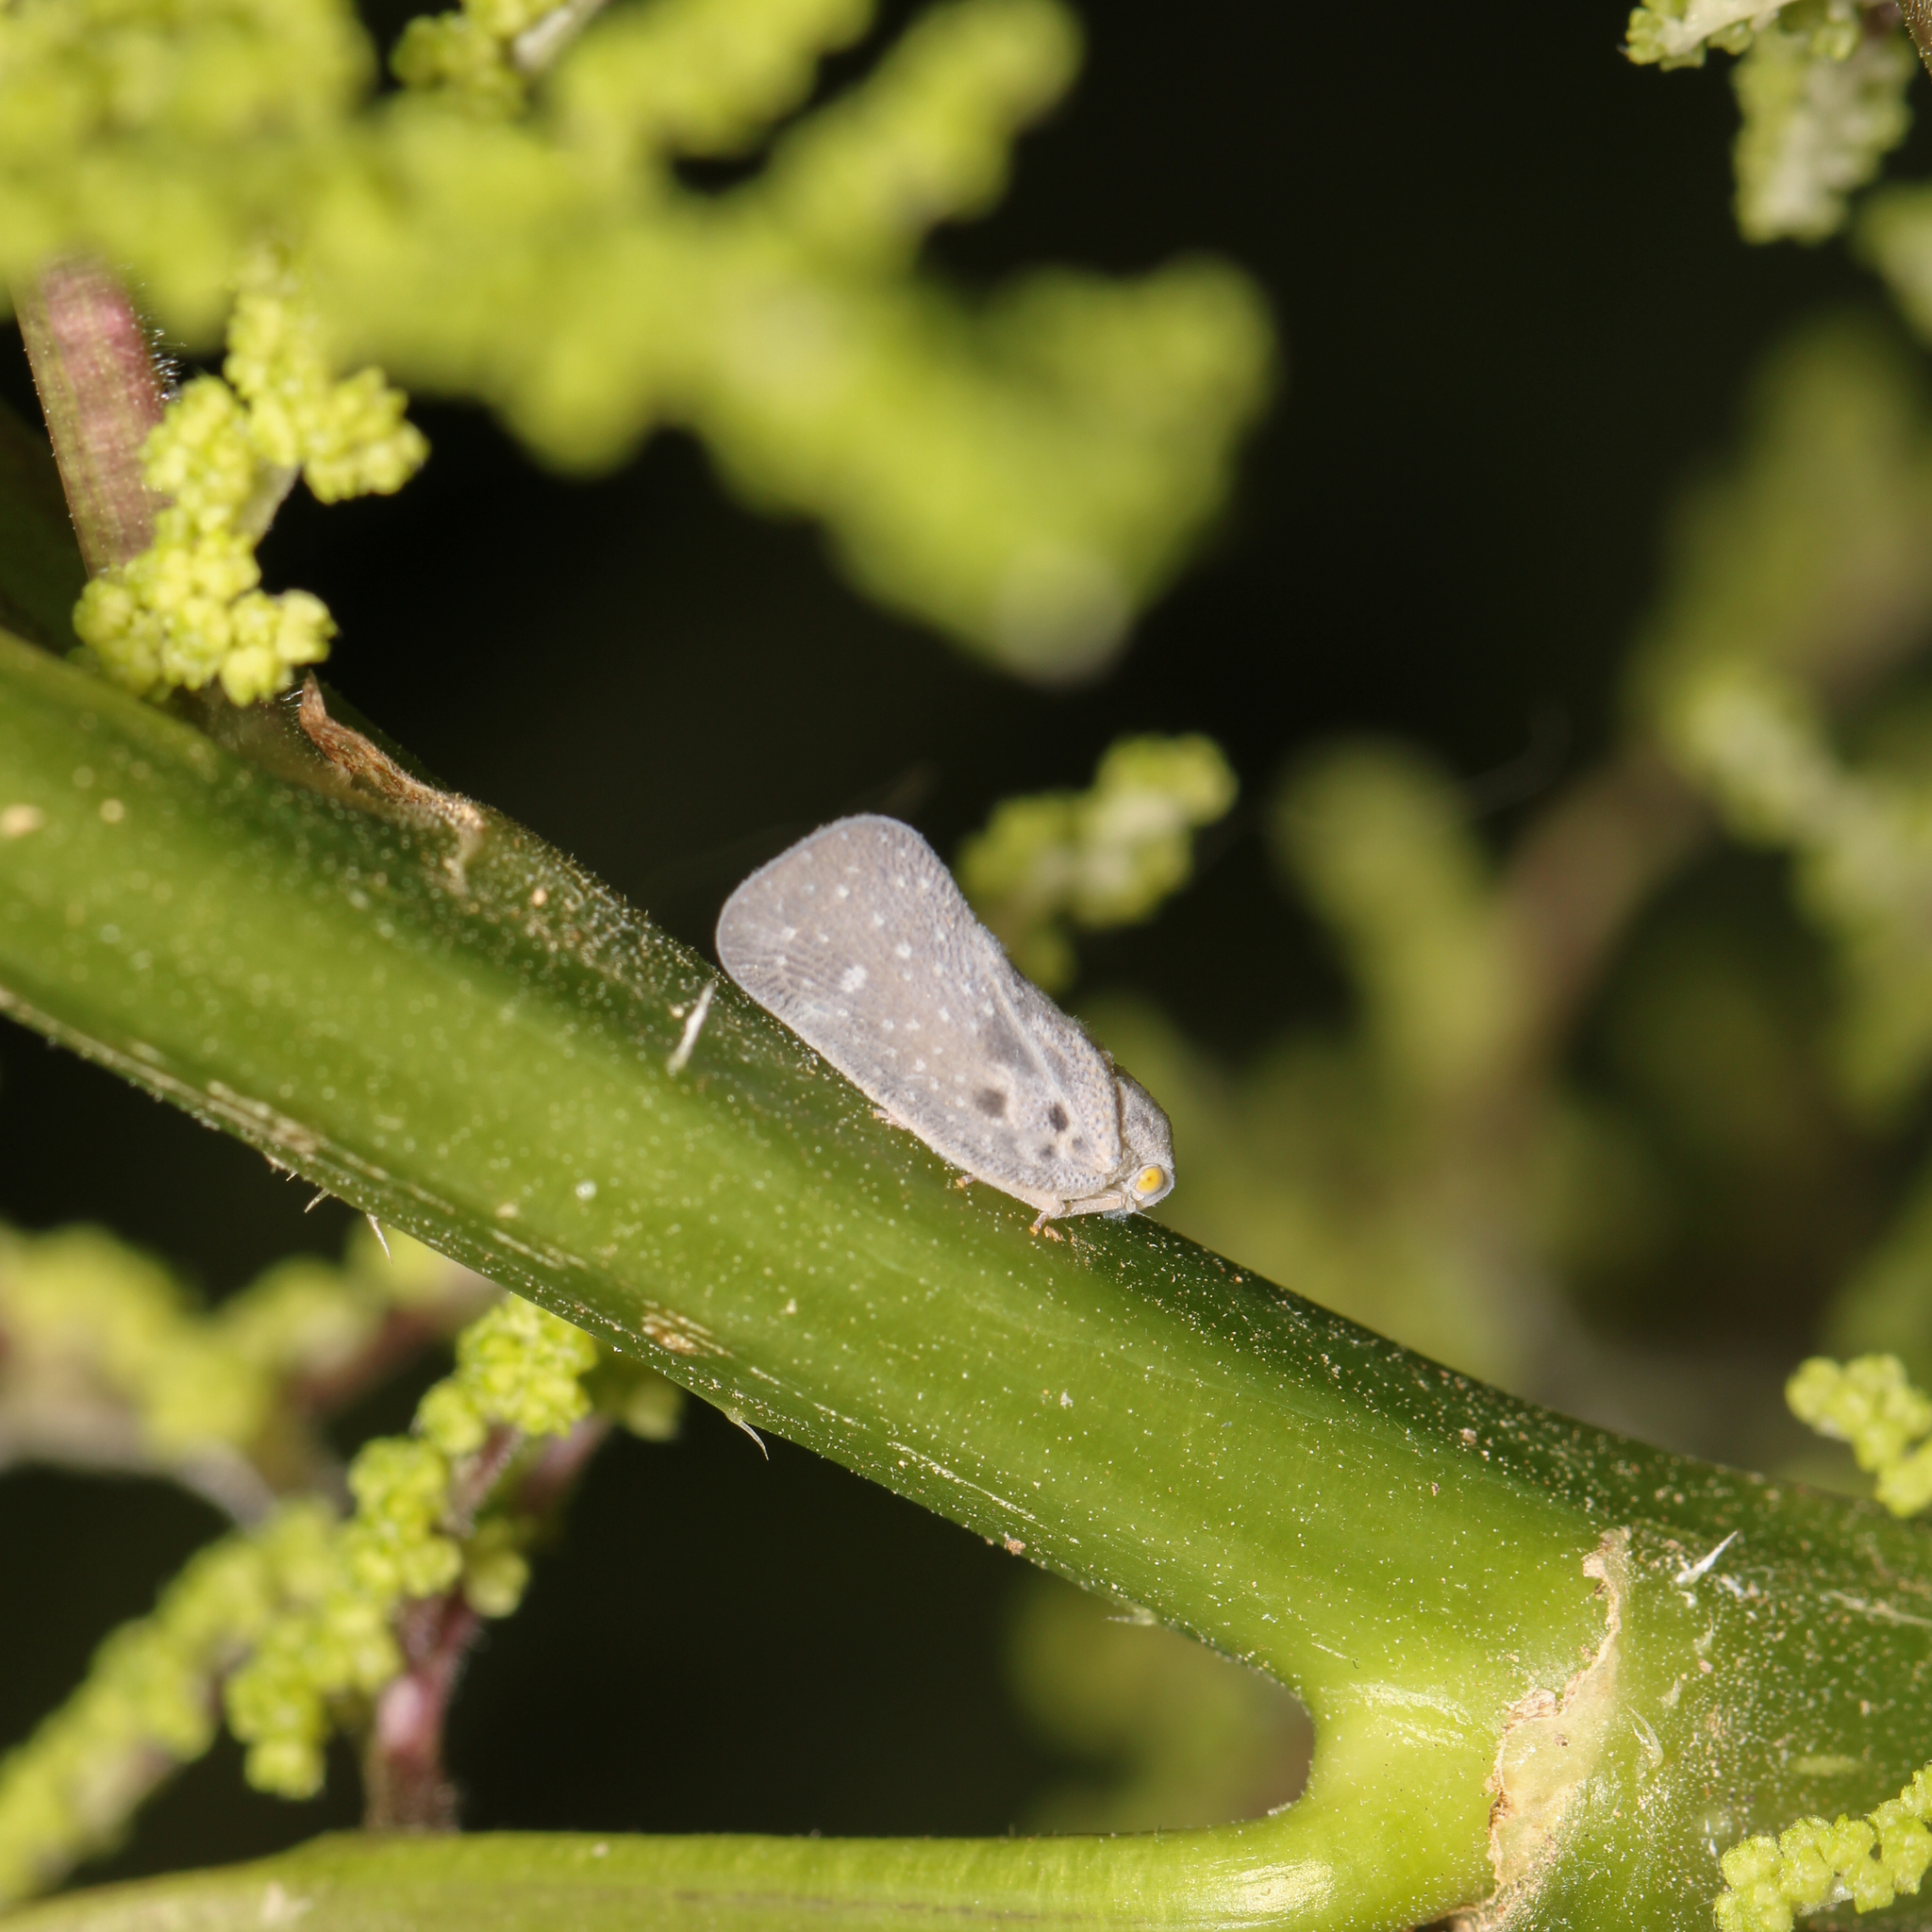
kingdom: Animalia
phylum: Arthropoda
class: Insecta
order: Hemiptera
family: Flatidae
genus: Metcalfa
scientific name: Metcalfa pruinosa
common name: Citrus flatid planthopper
